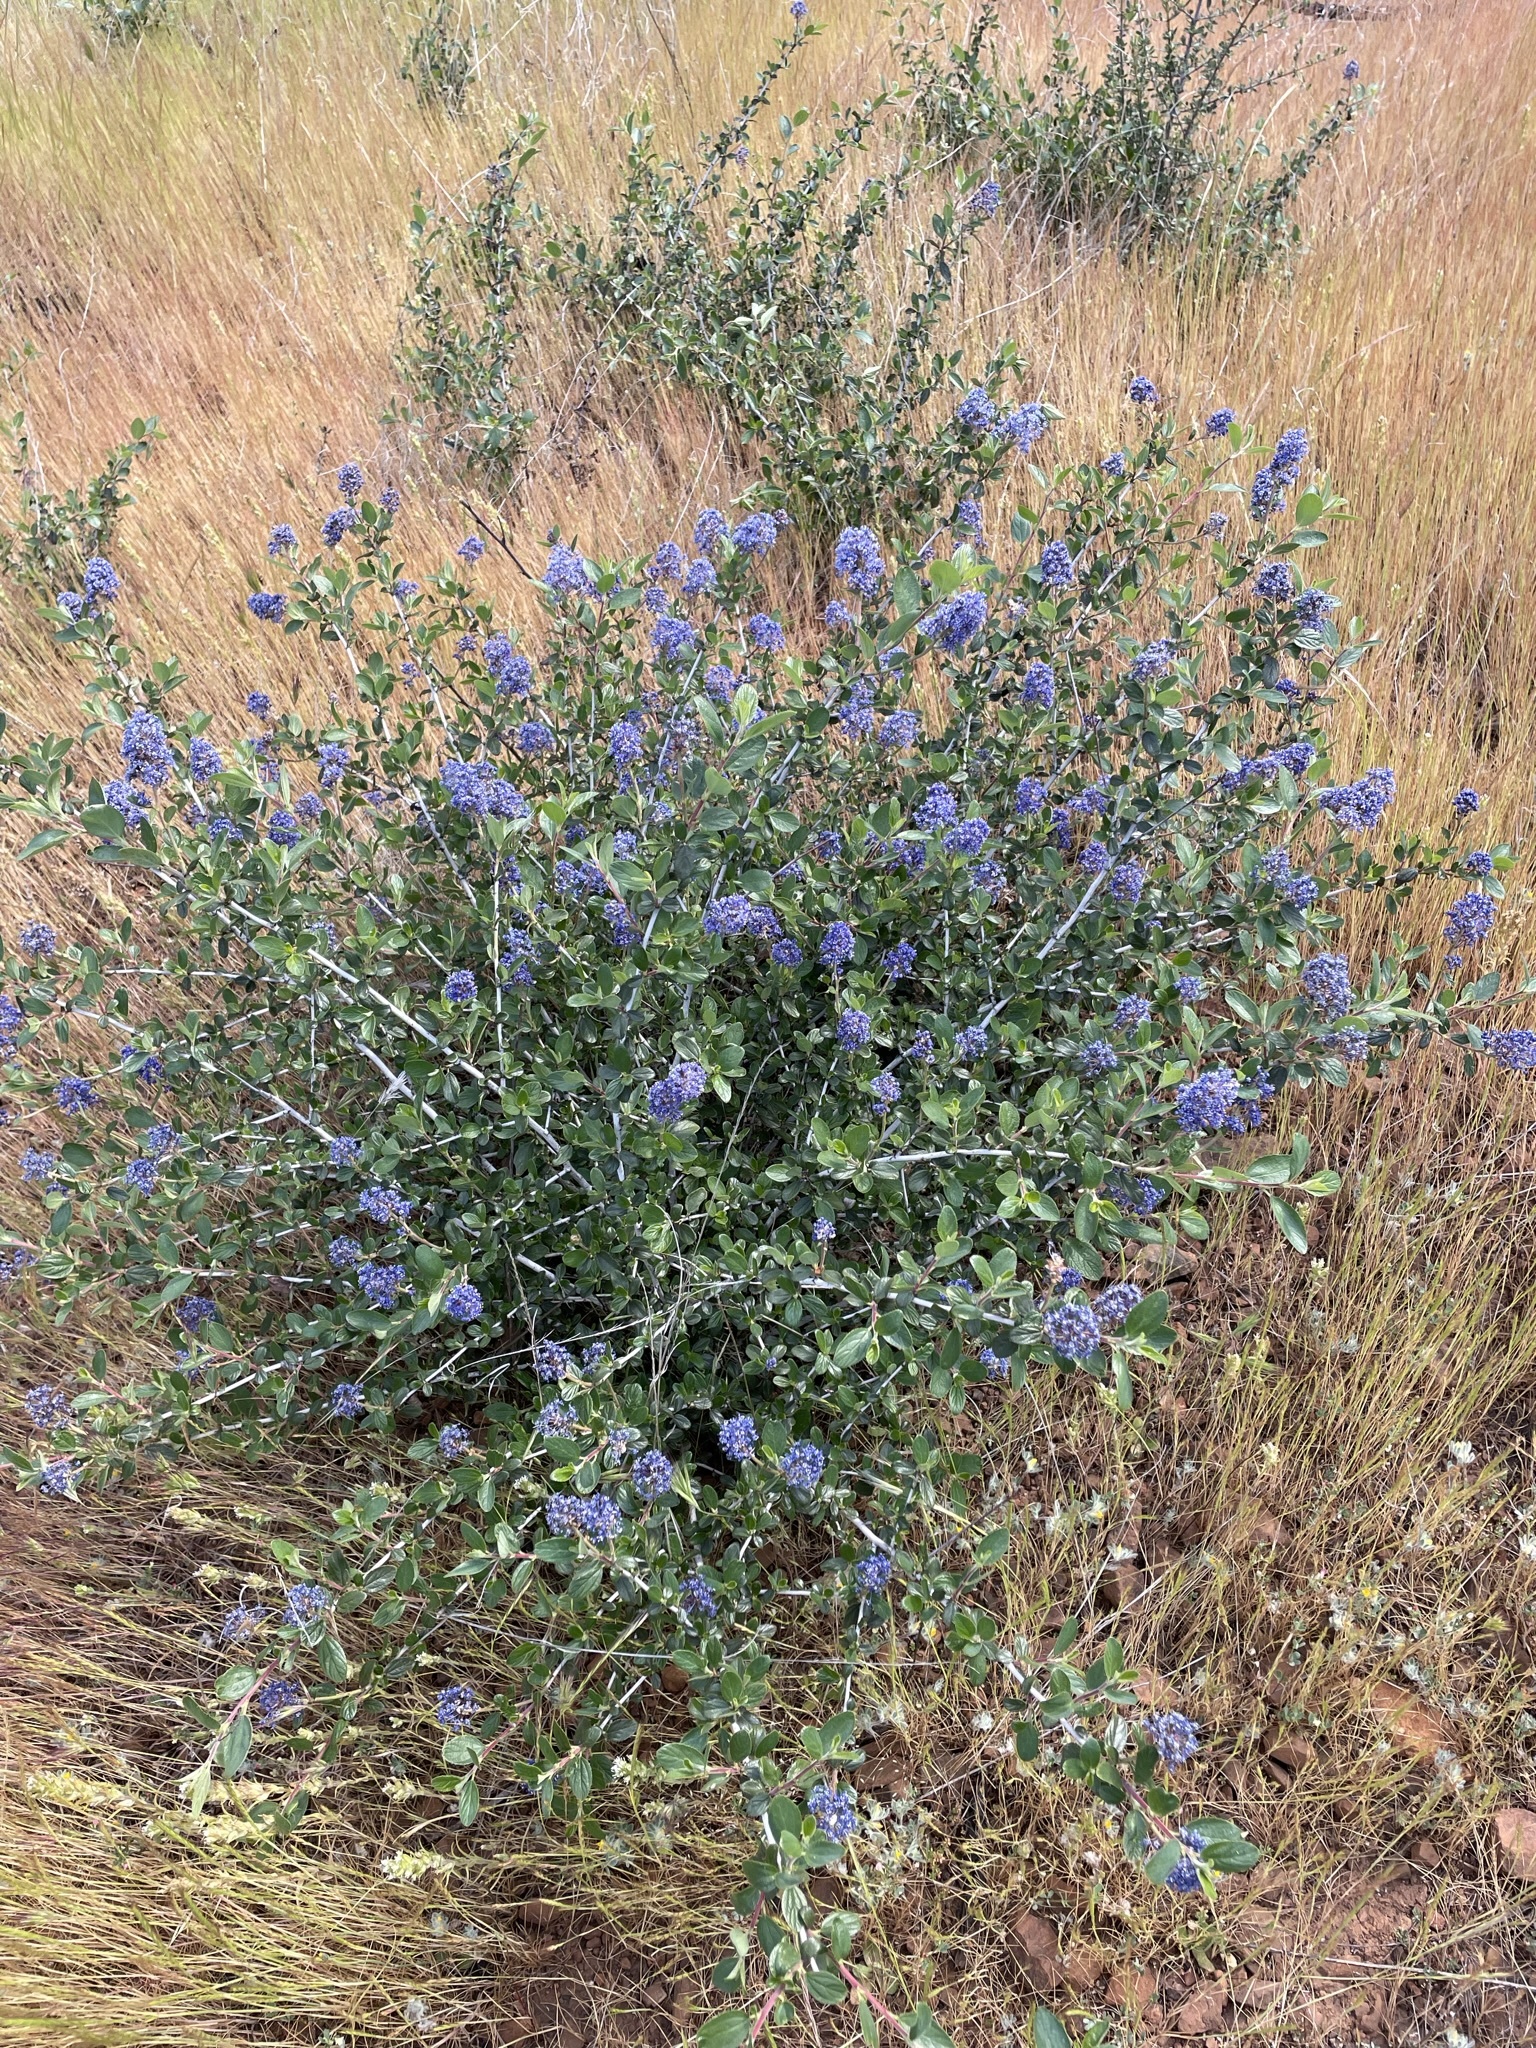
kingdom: Plantae
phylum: Tracheophyta
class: Magnoliopsida
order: Rosales
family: Rhamnaceae
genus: Ceanothus
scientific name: Ceanothus lemmonii
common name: Lemmon's ceanothus
